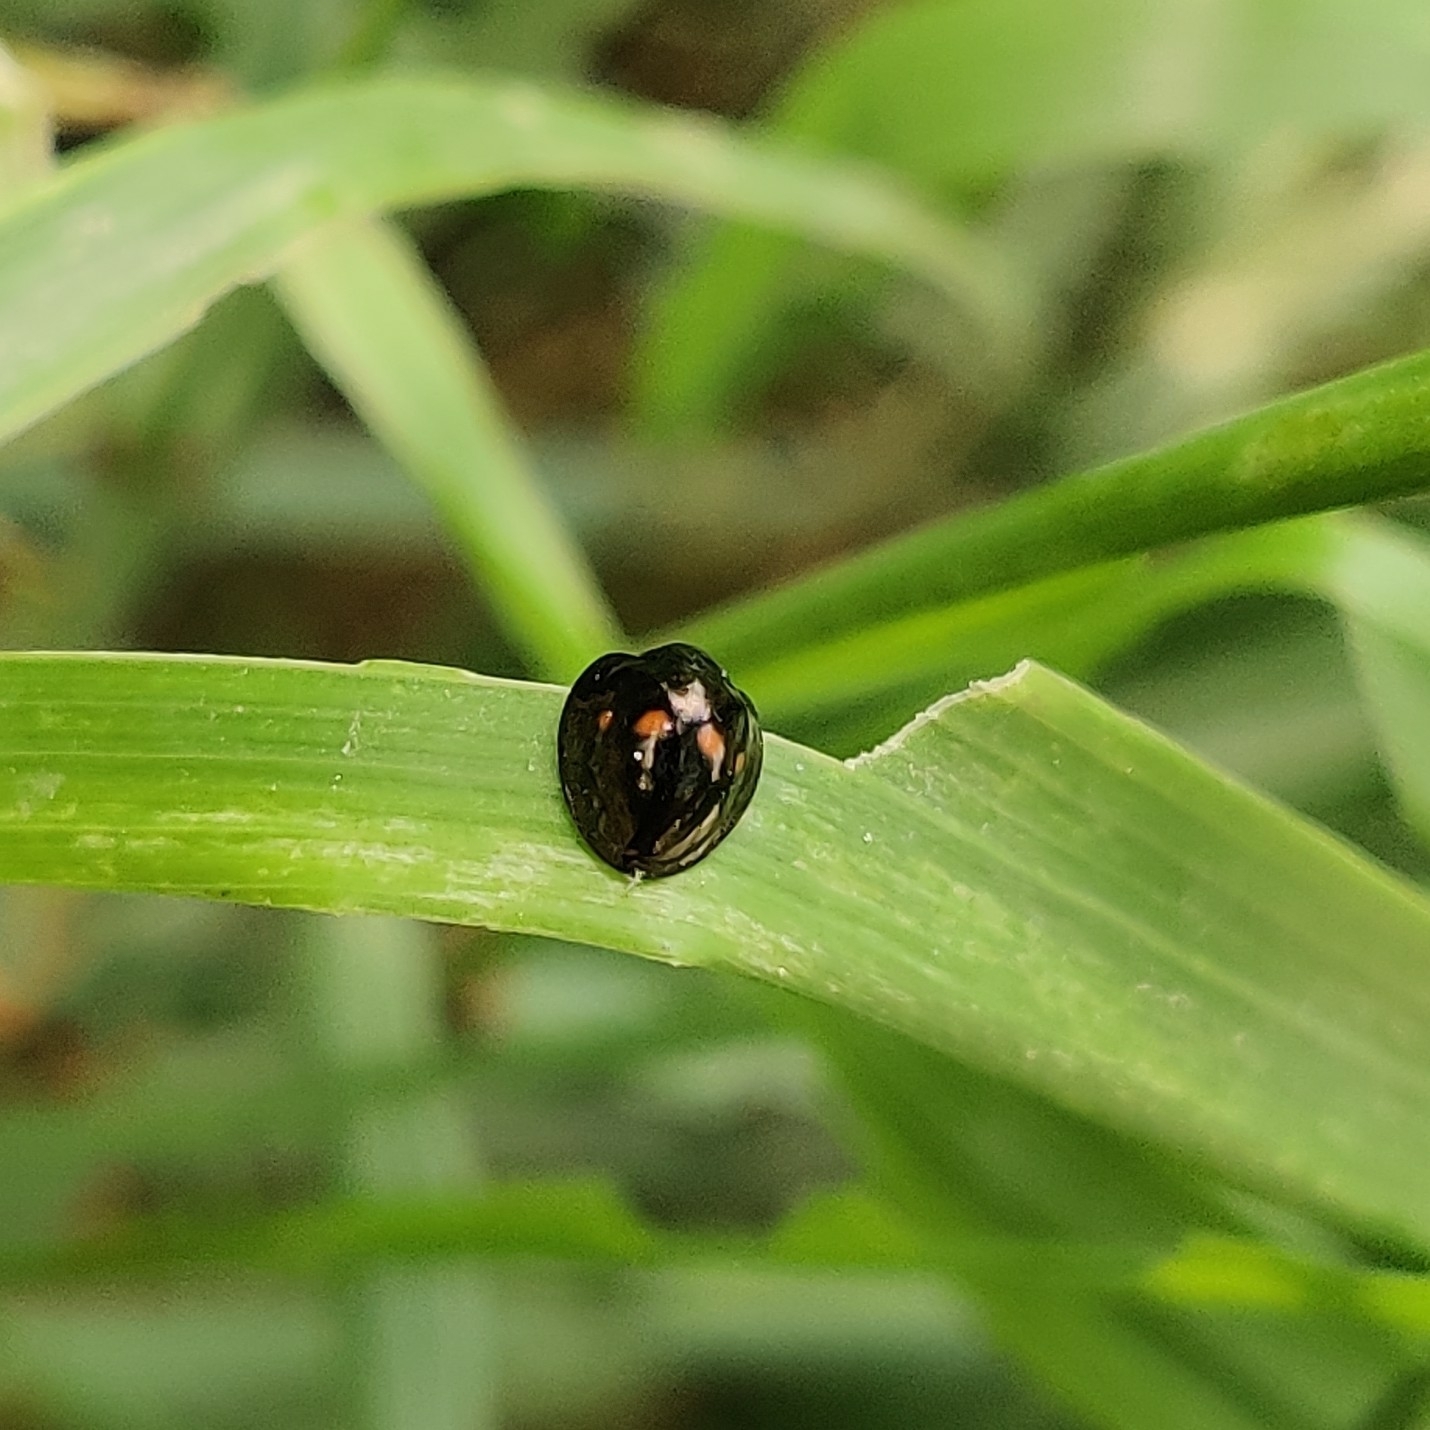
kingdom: Animalia
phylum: Arthropoda
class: Insecta
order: Coleoptera
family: Coccinellidae
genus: Chilocorus
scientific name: Chilocorus infernalis
